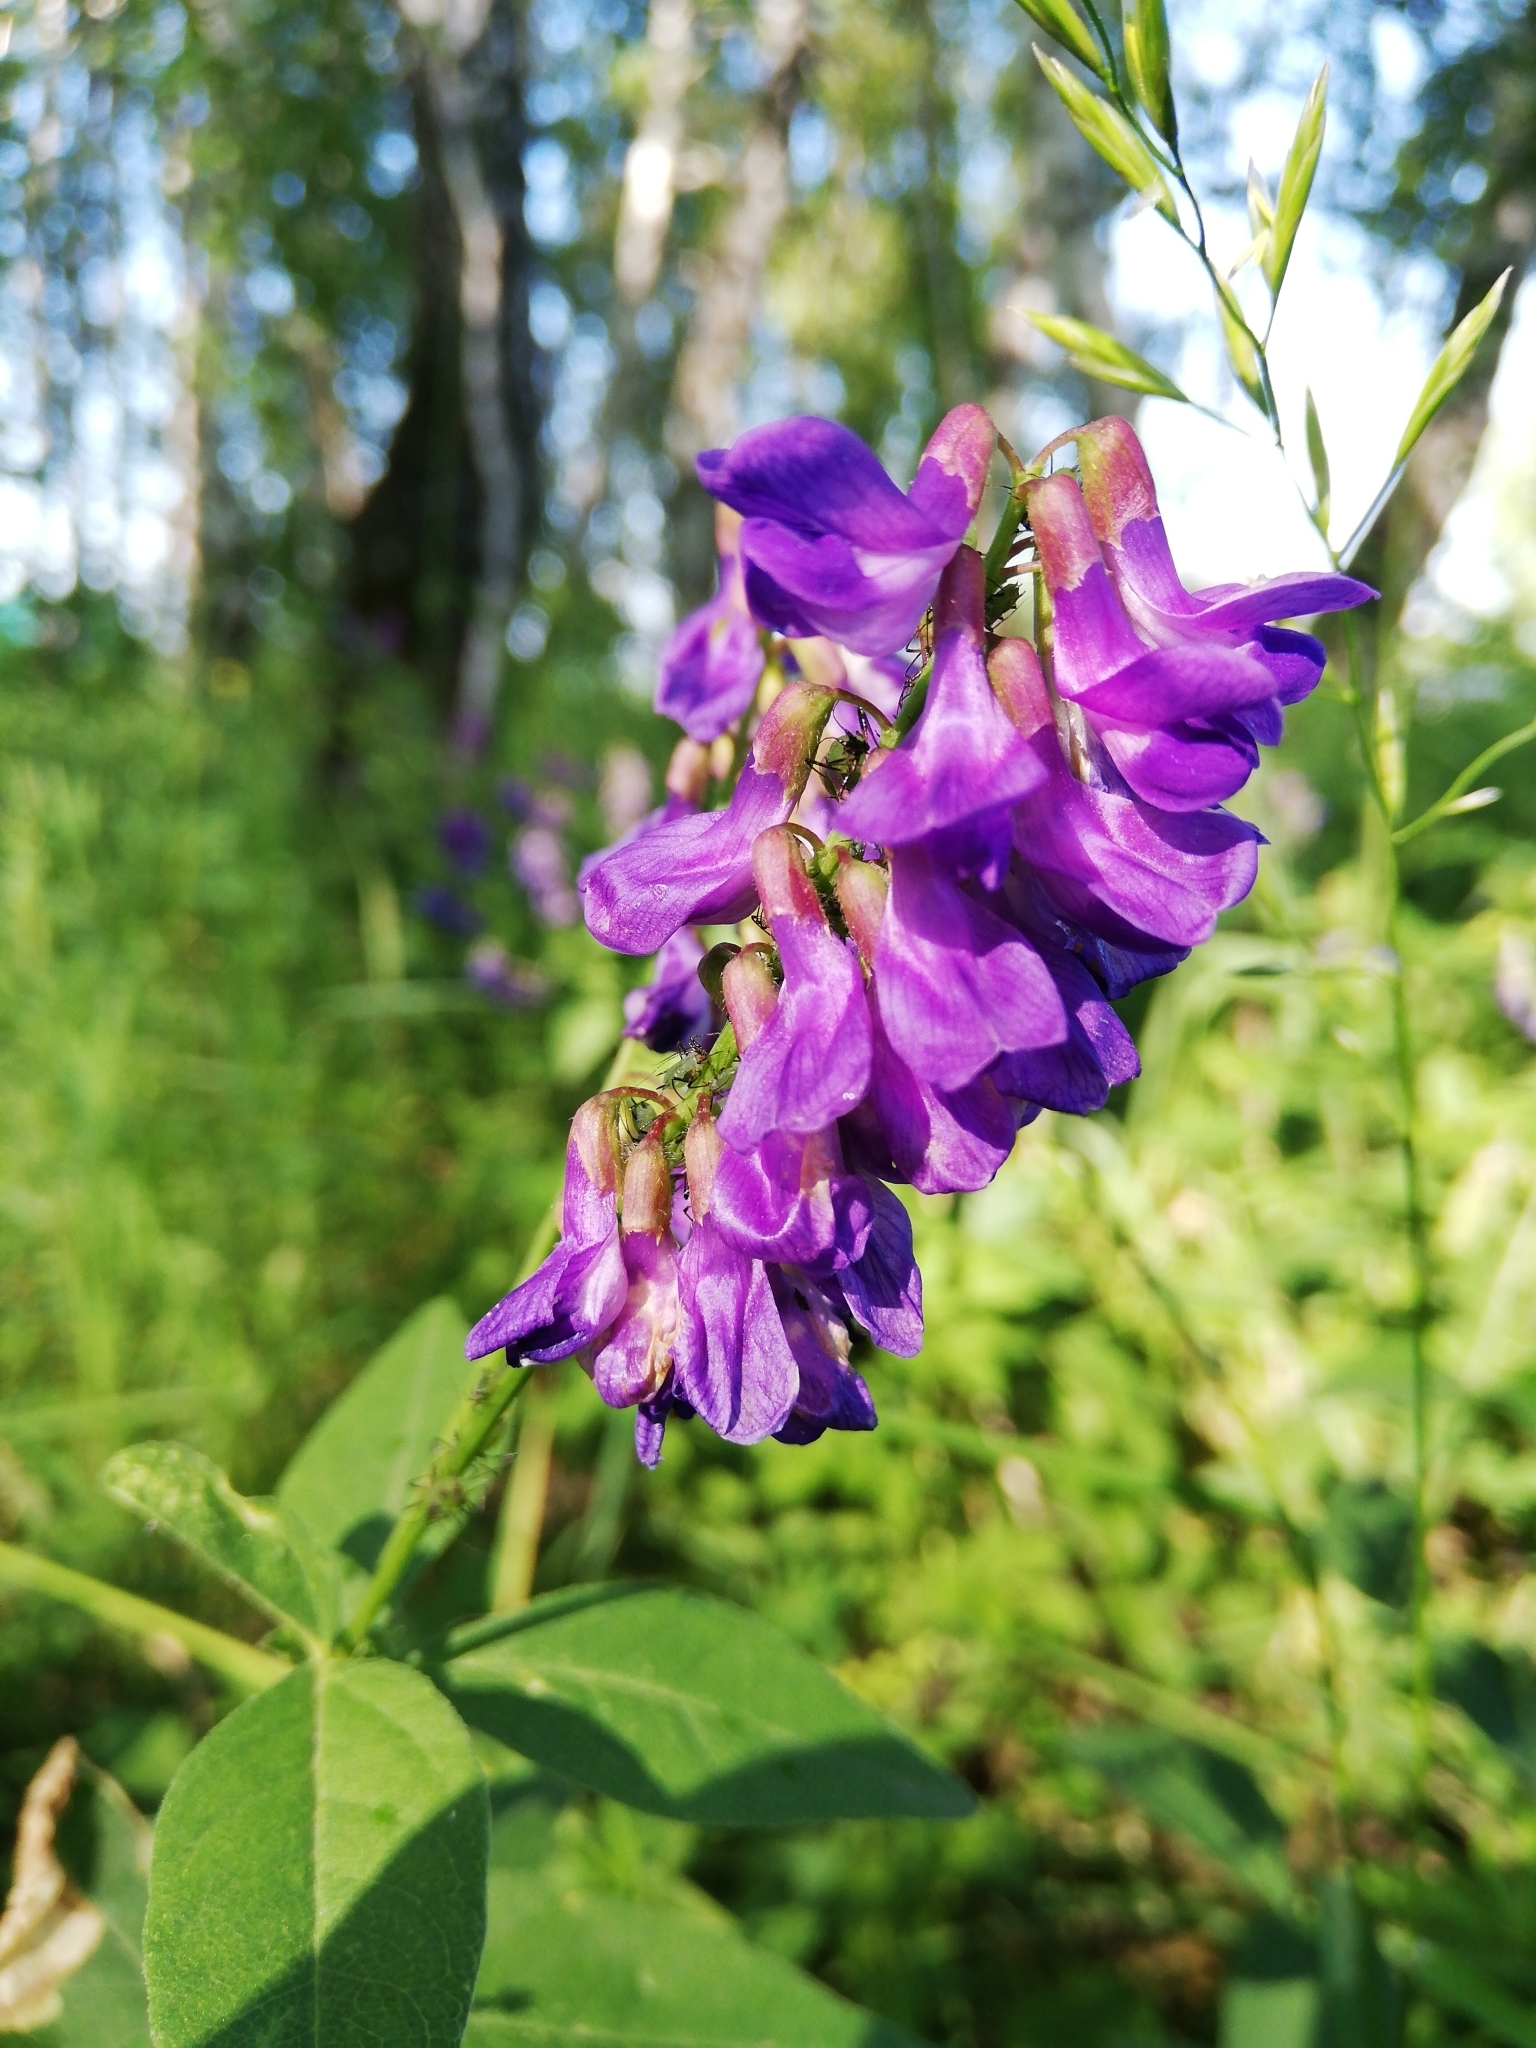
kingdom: Plantae
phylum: Tracheophyta
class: Magnoliopsida
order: Fabales
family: Fabaceae
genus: Vicia
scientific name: Vicia unijuga
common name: Two-leaf vetch
